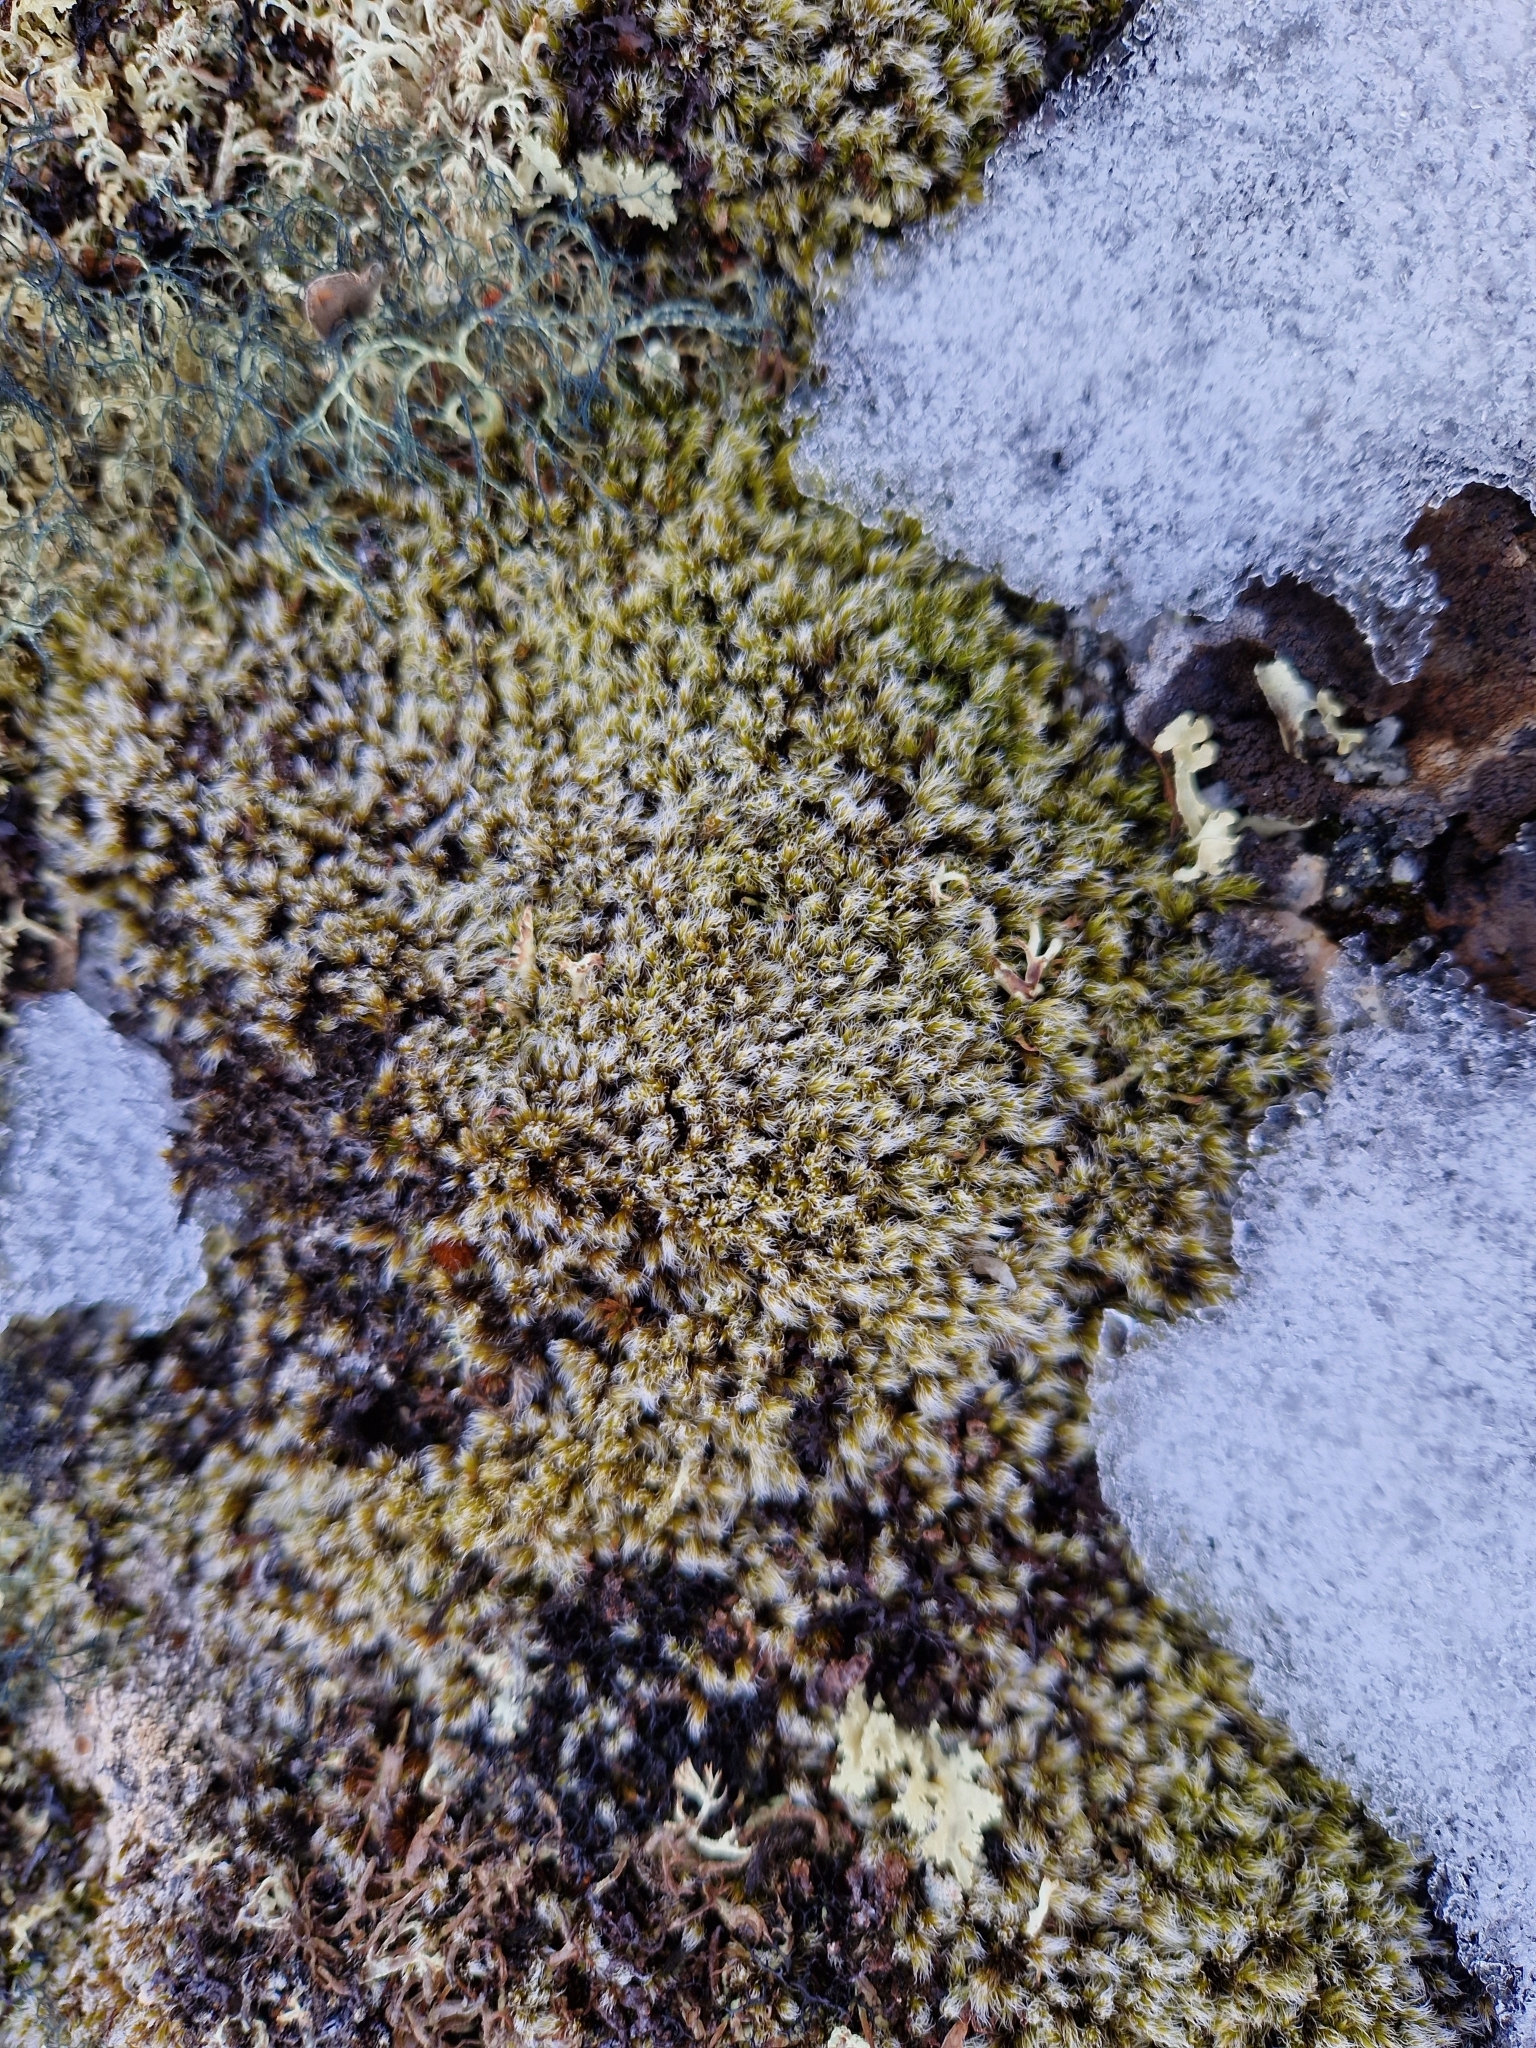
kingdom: Plantae
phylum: Bryophyta
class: Bryopsida
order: Grimmiales
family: Grimmiaceae
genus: Racomitrium
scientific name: Racomitrium lanuginosum
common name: Hoary rock moss
